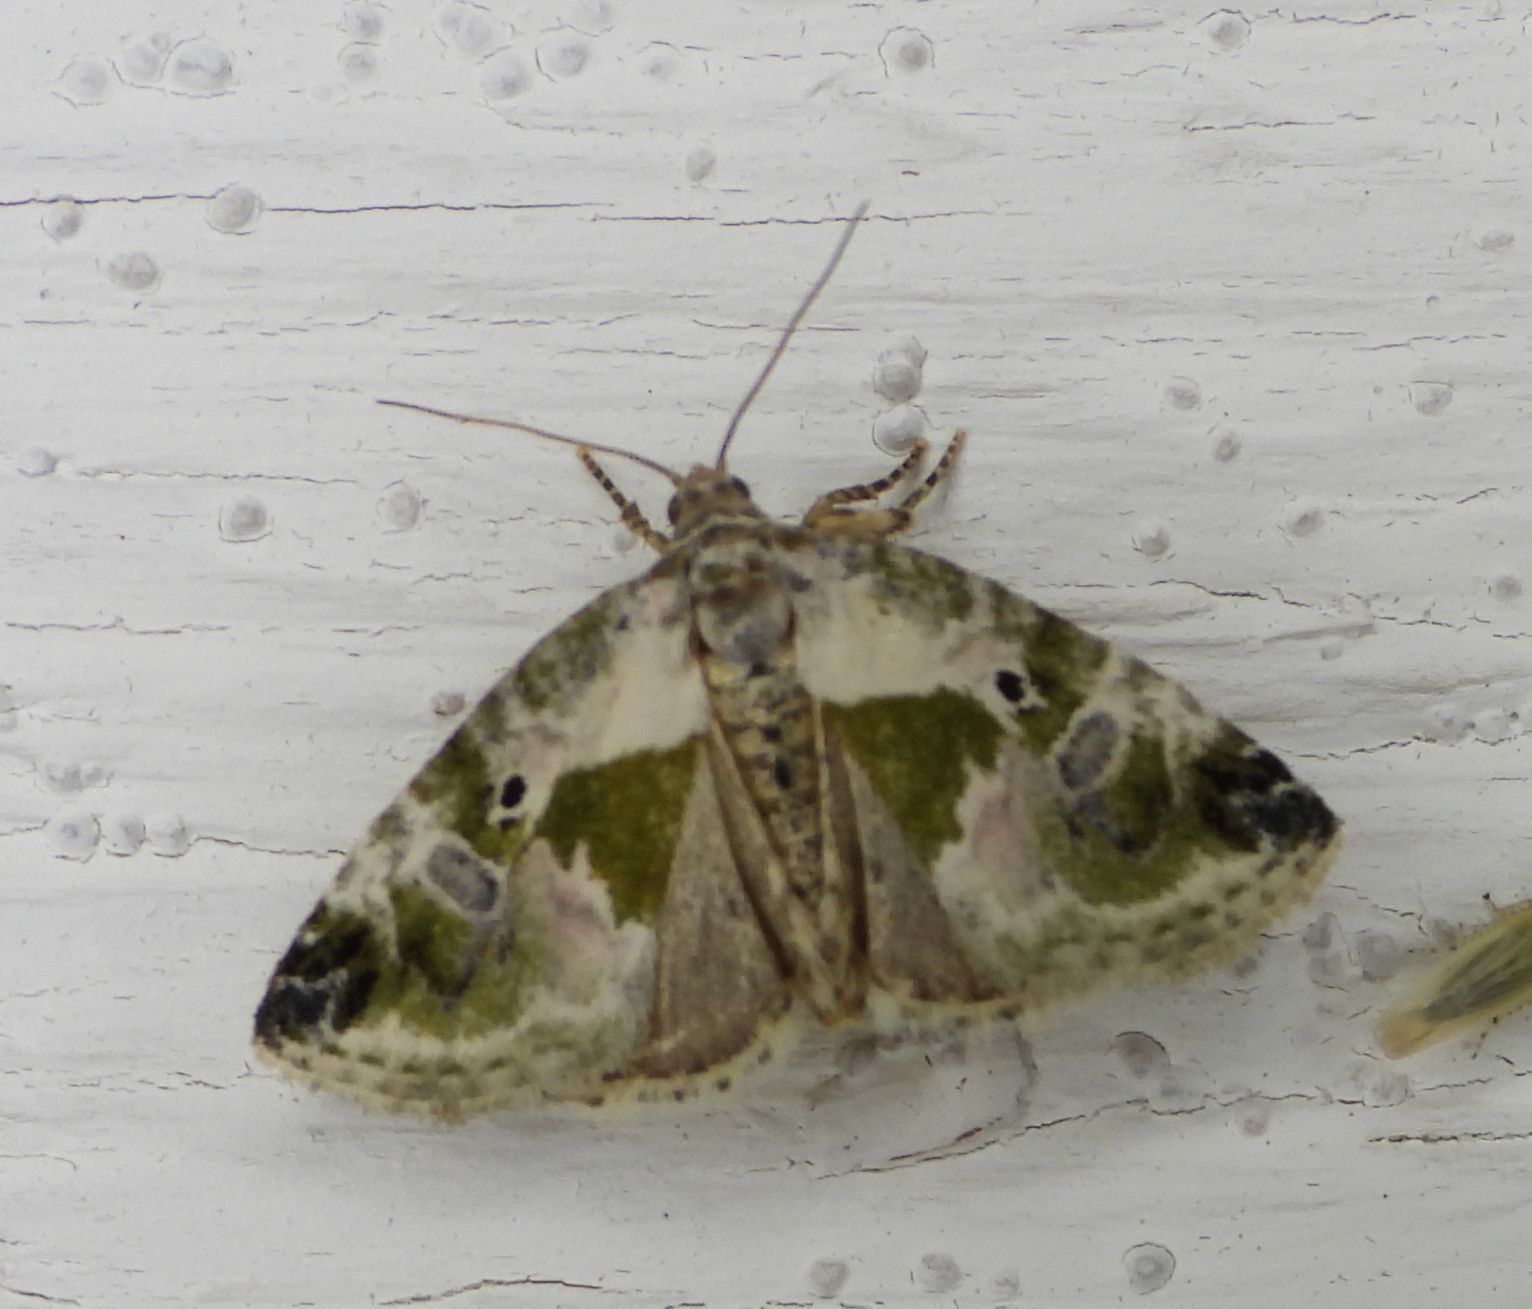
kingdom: Animalia
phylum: Arthropoda
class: Insecta
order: Lepidoptera
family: Noctuidae
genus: Maliattha
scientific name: Maliattha synochitis
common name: Black-dotted glyph
